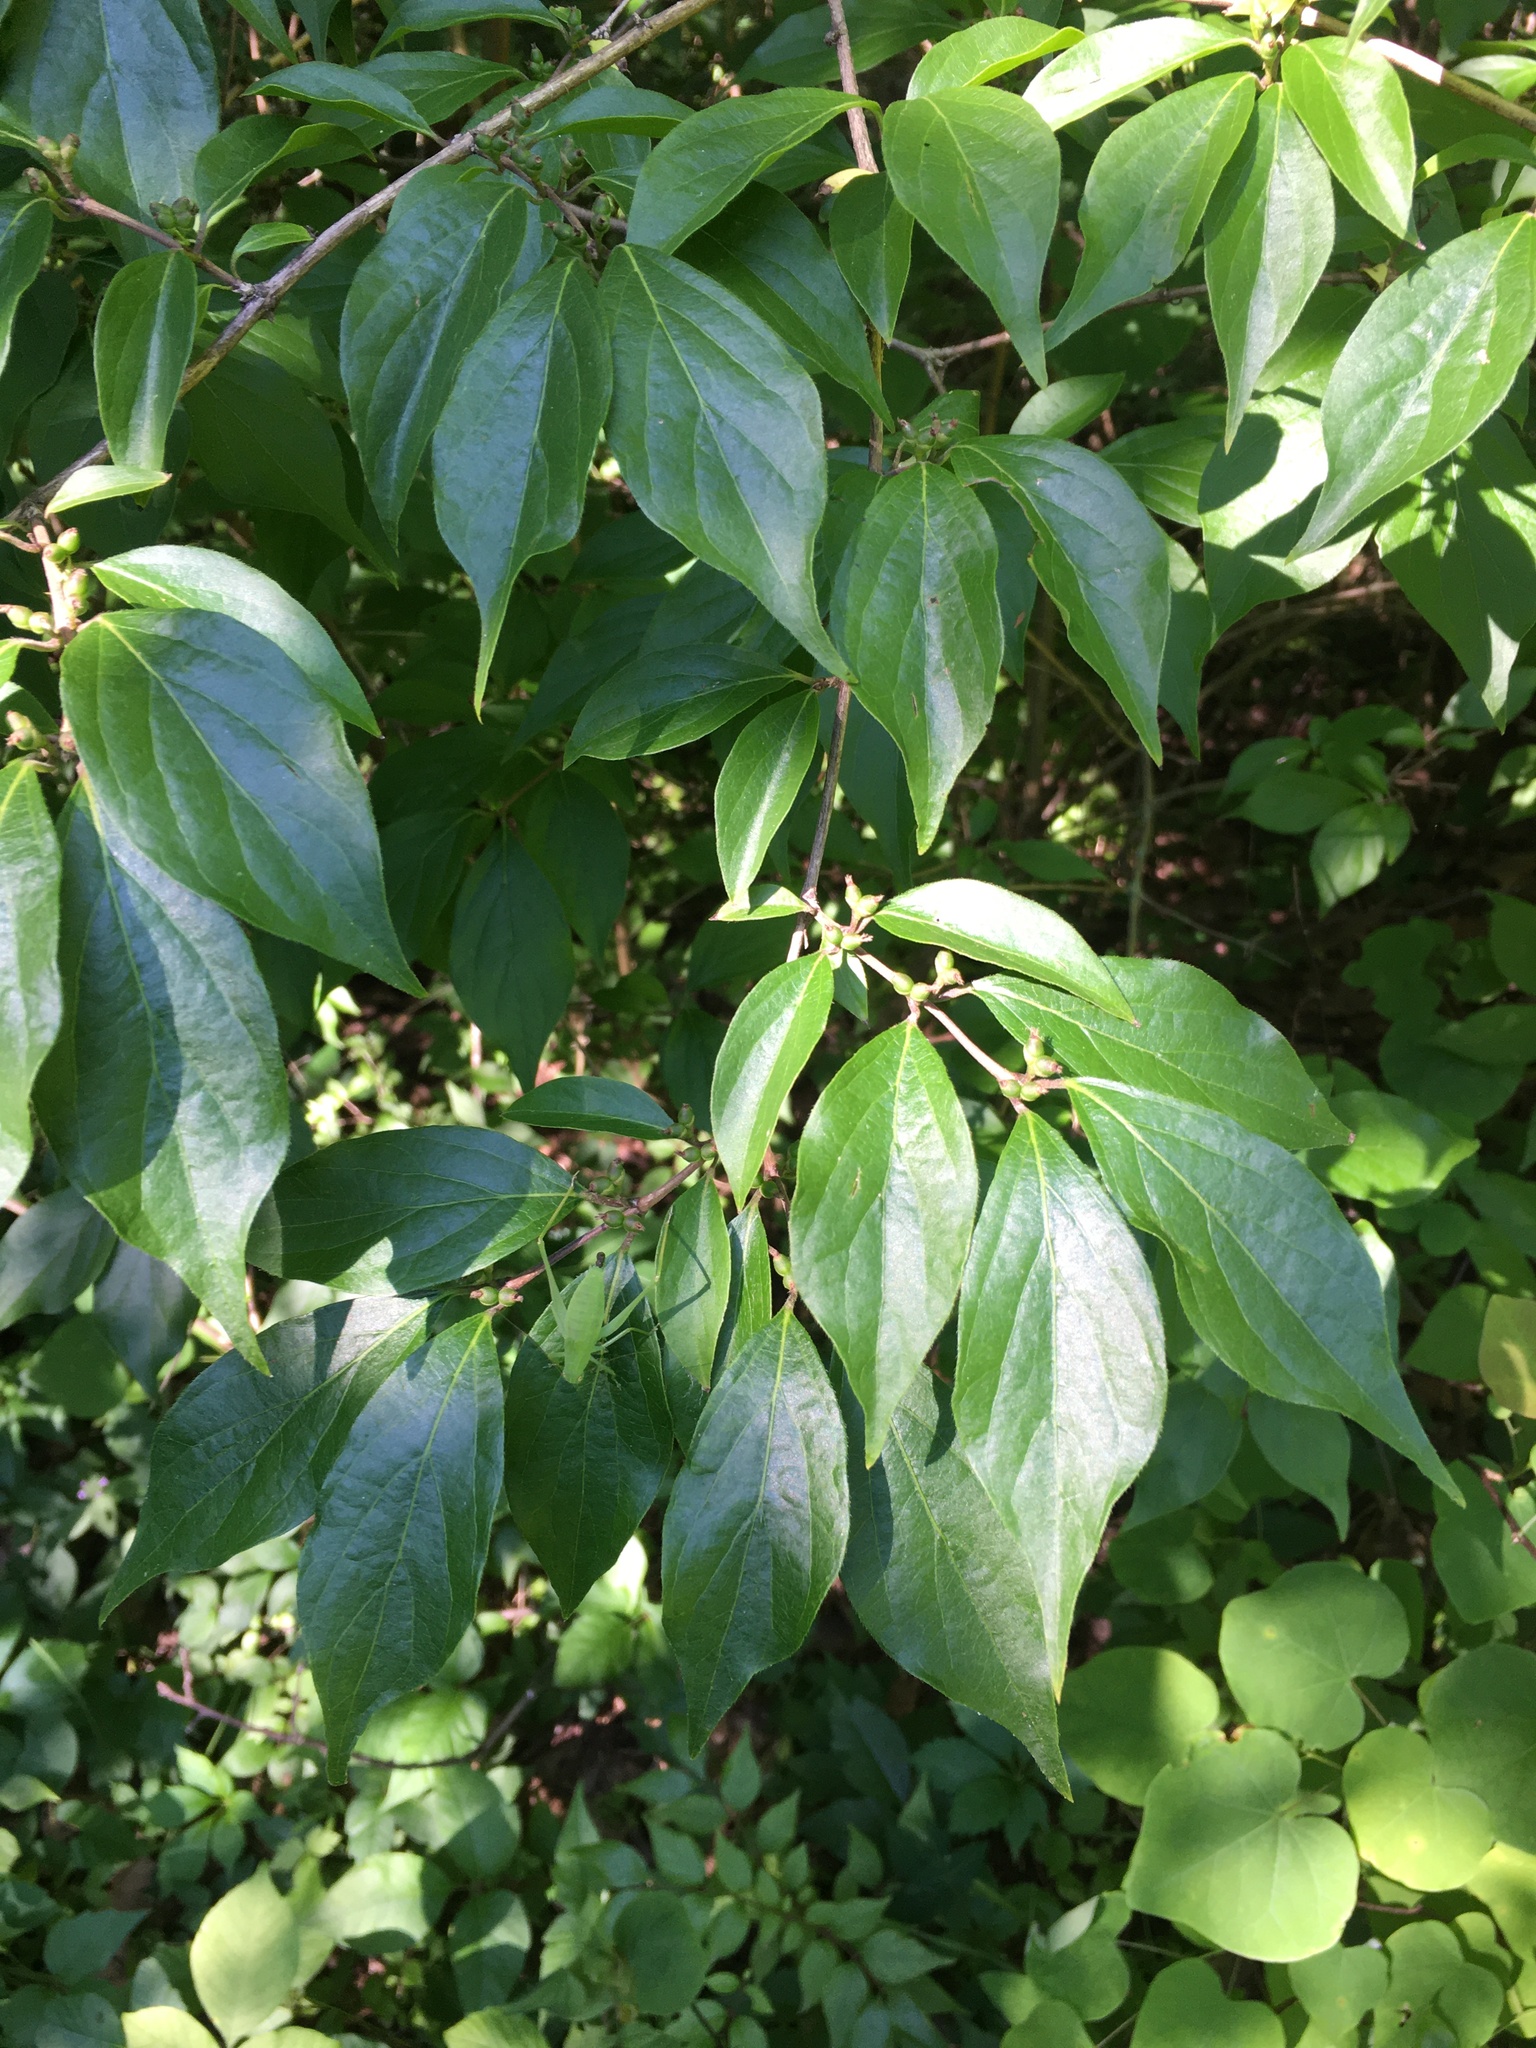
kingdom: Plantae
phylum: Tracheophyta
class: Magnoliopsida
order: Dipsacales
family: Caprifoliaceae
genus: Lonicera
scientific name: Lonicera maackii
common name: Amur honeysuckle
